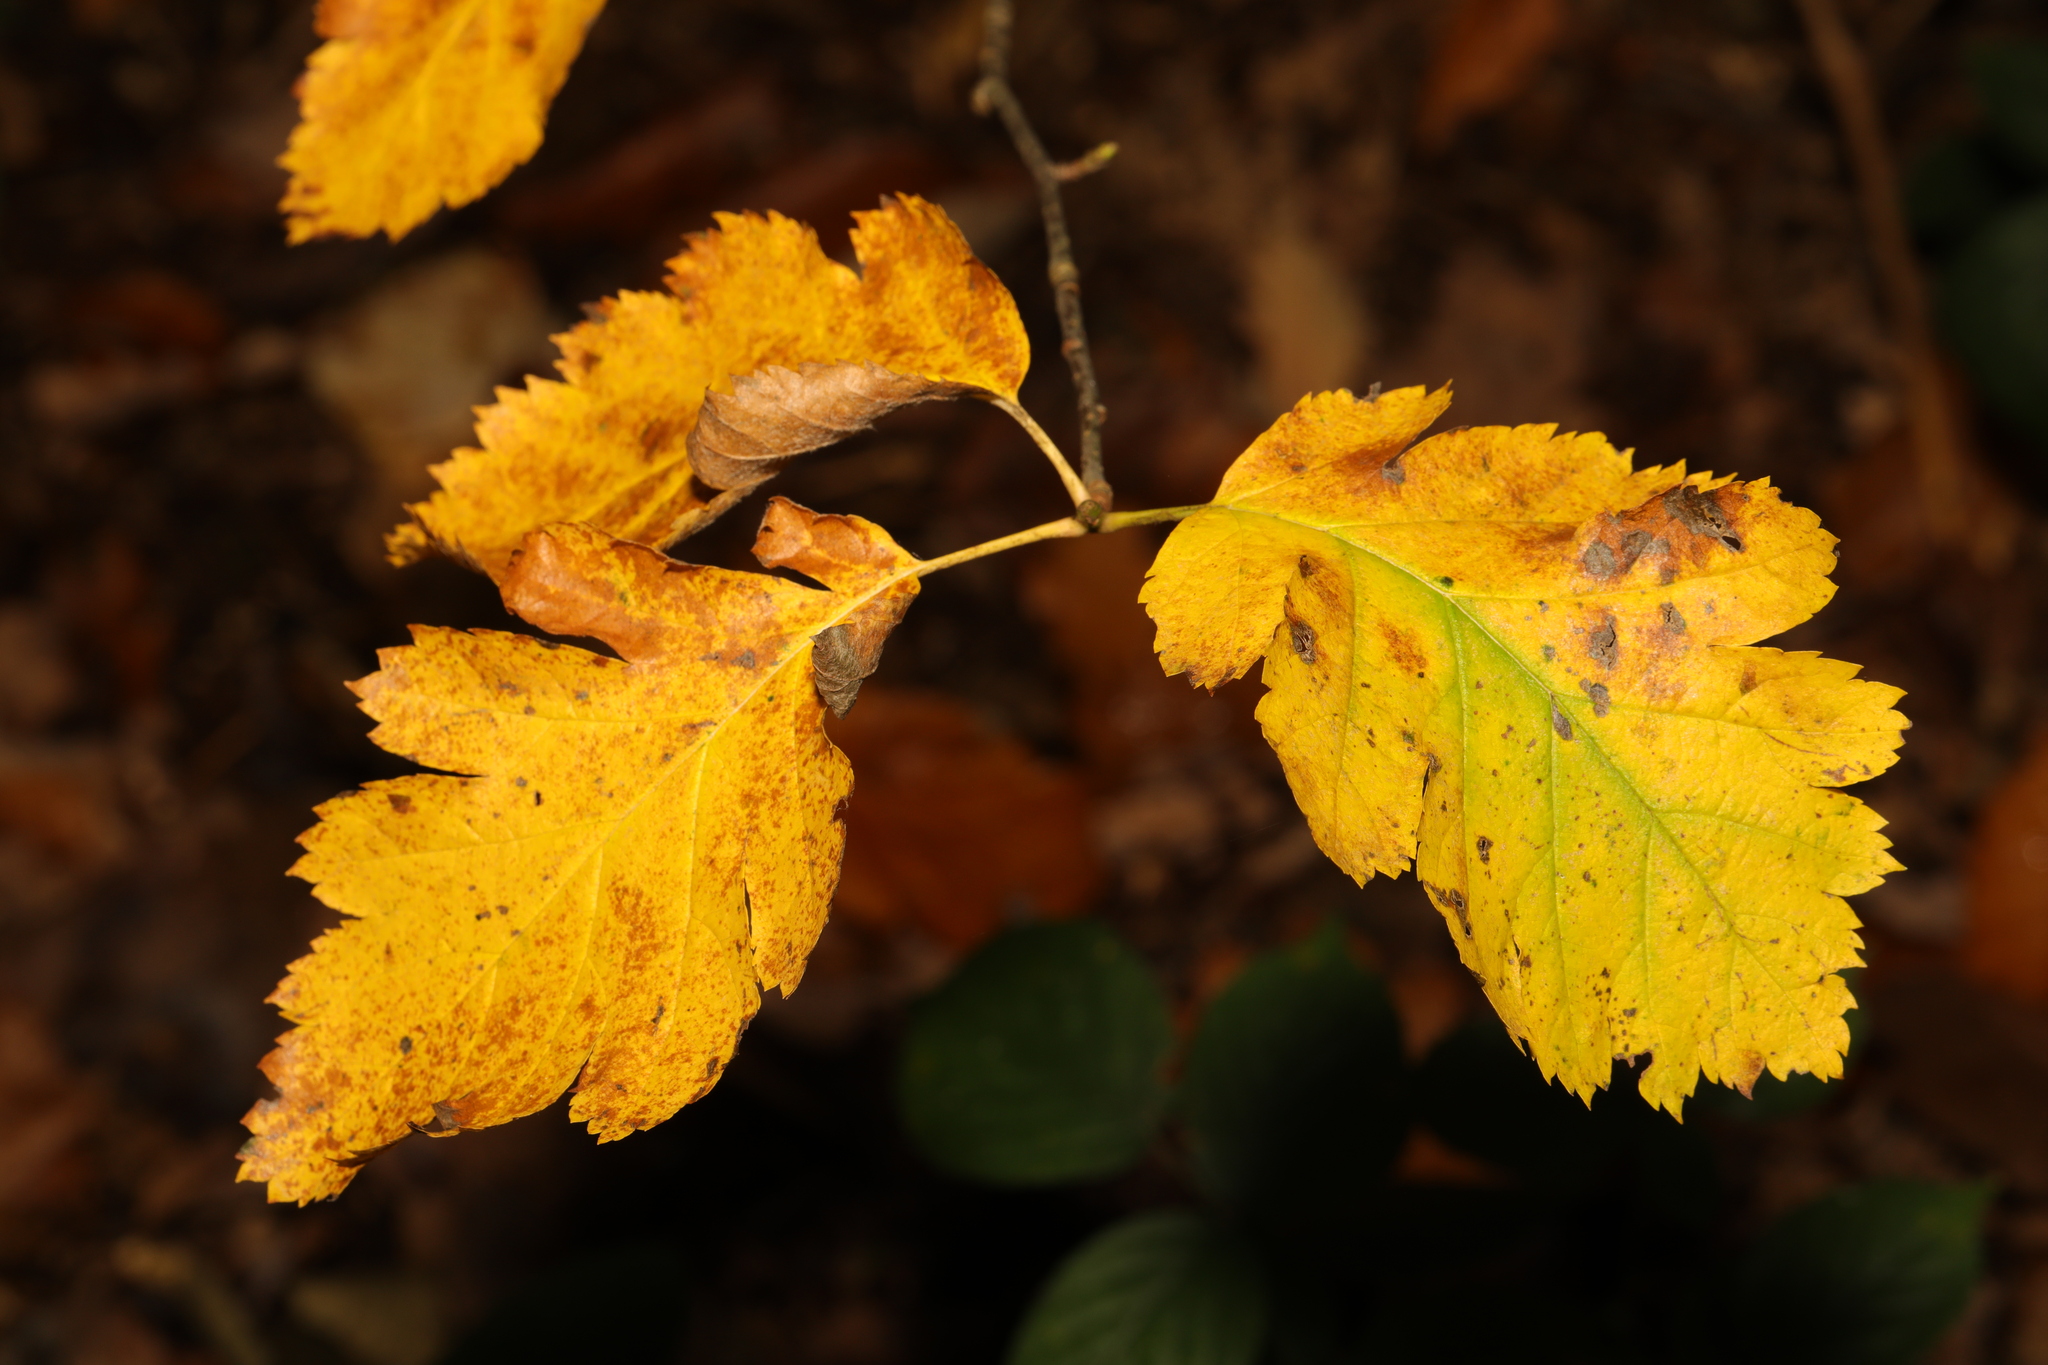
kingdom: Plantae
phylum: Tracheophyta
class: Magnoliopsida
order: Rosales
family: Rosaceae
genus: Scandosorbus
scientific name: Scandosorbus intermedia
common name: Swedish whitebeam
